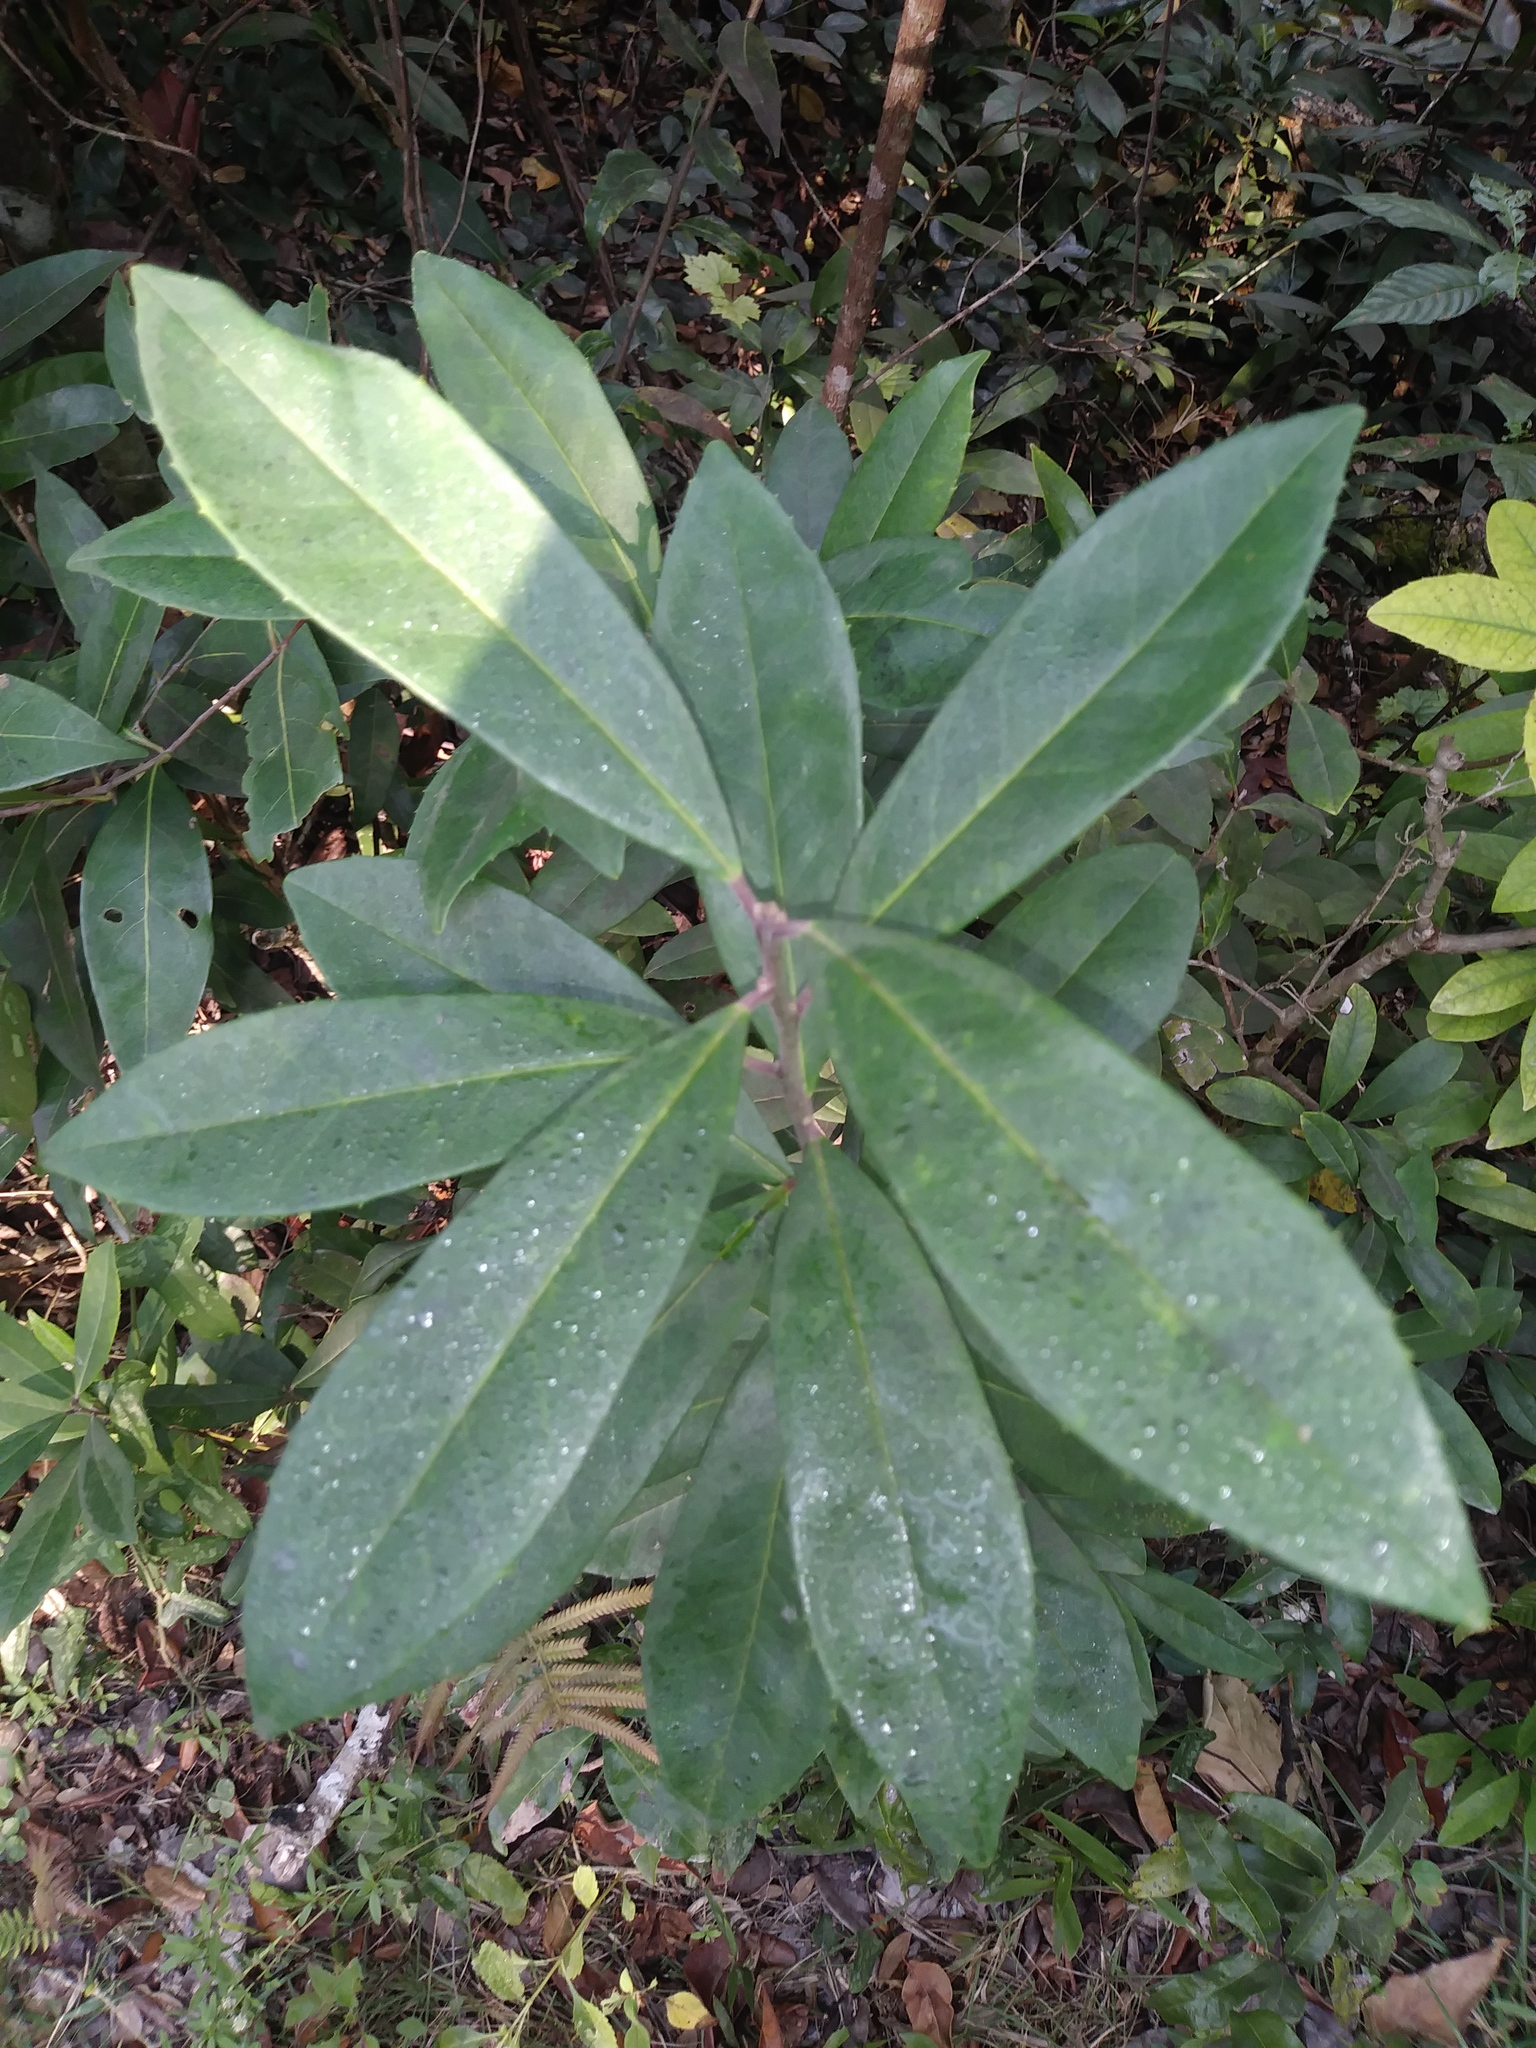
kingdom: Plantae
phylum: Tracheophyta
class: Magnoliopsida
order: Aquifoliales
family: Aquifoliaceae
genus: Ilex
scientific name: Ilex cassine
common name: Dahoon
